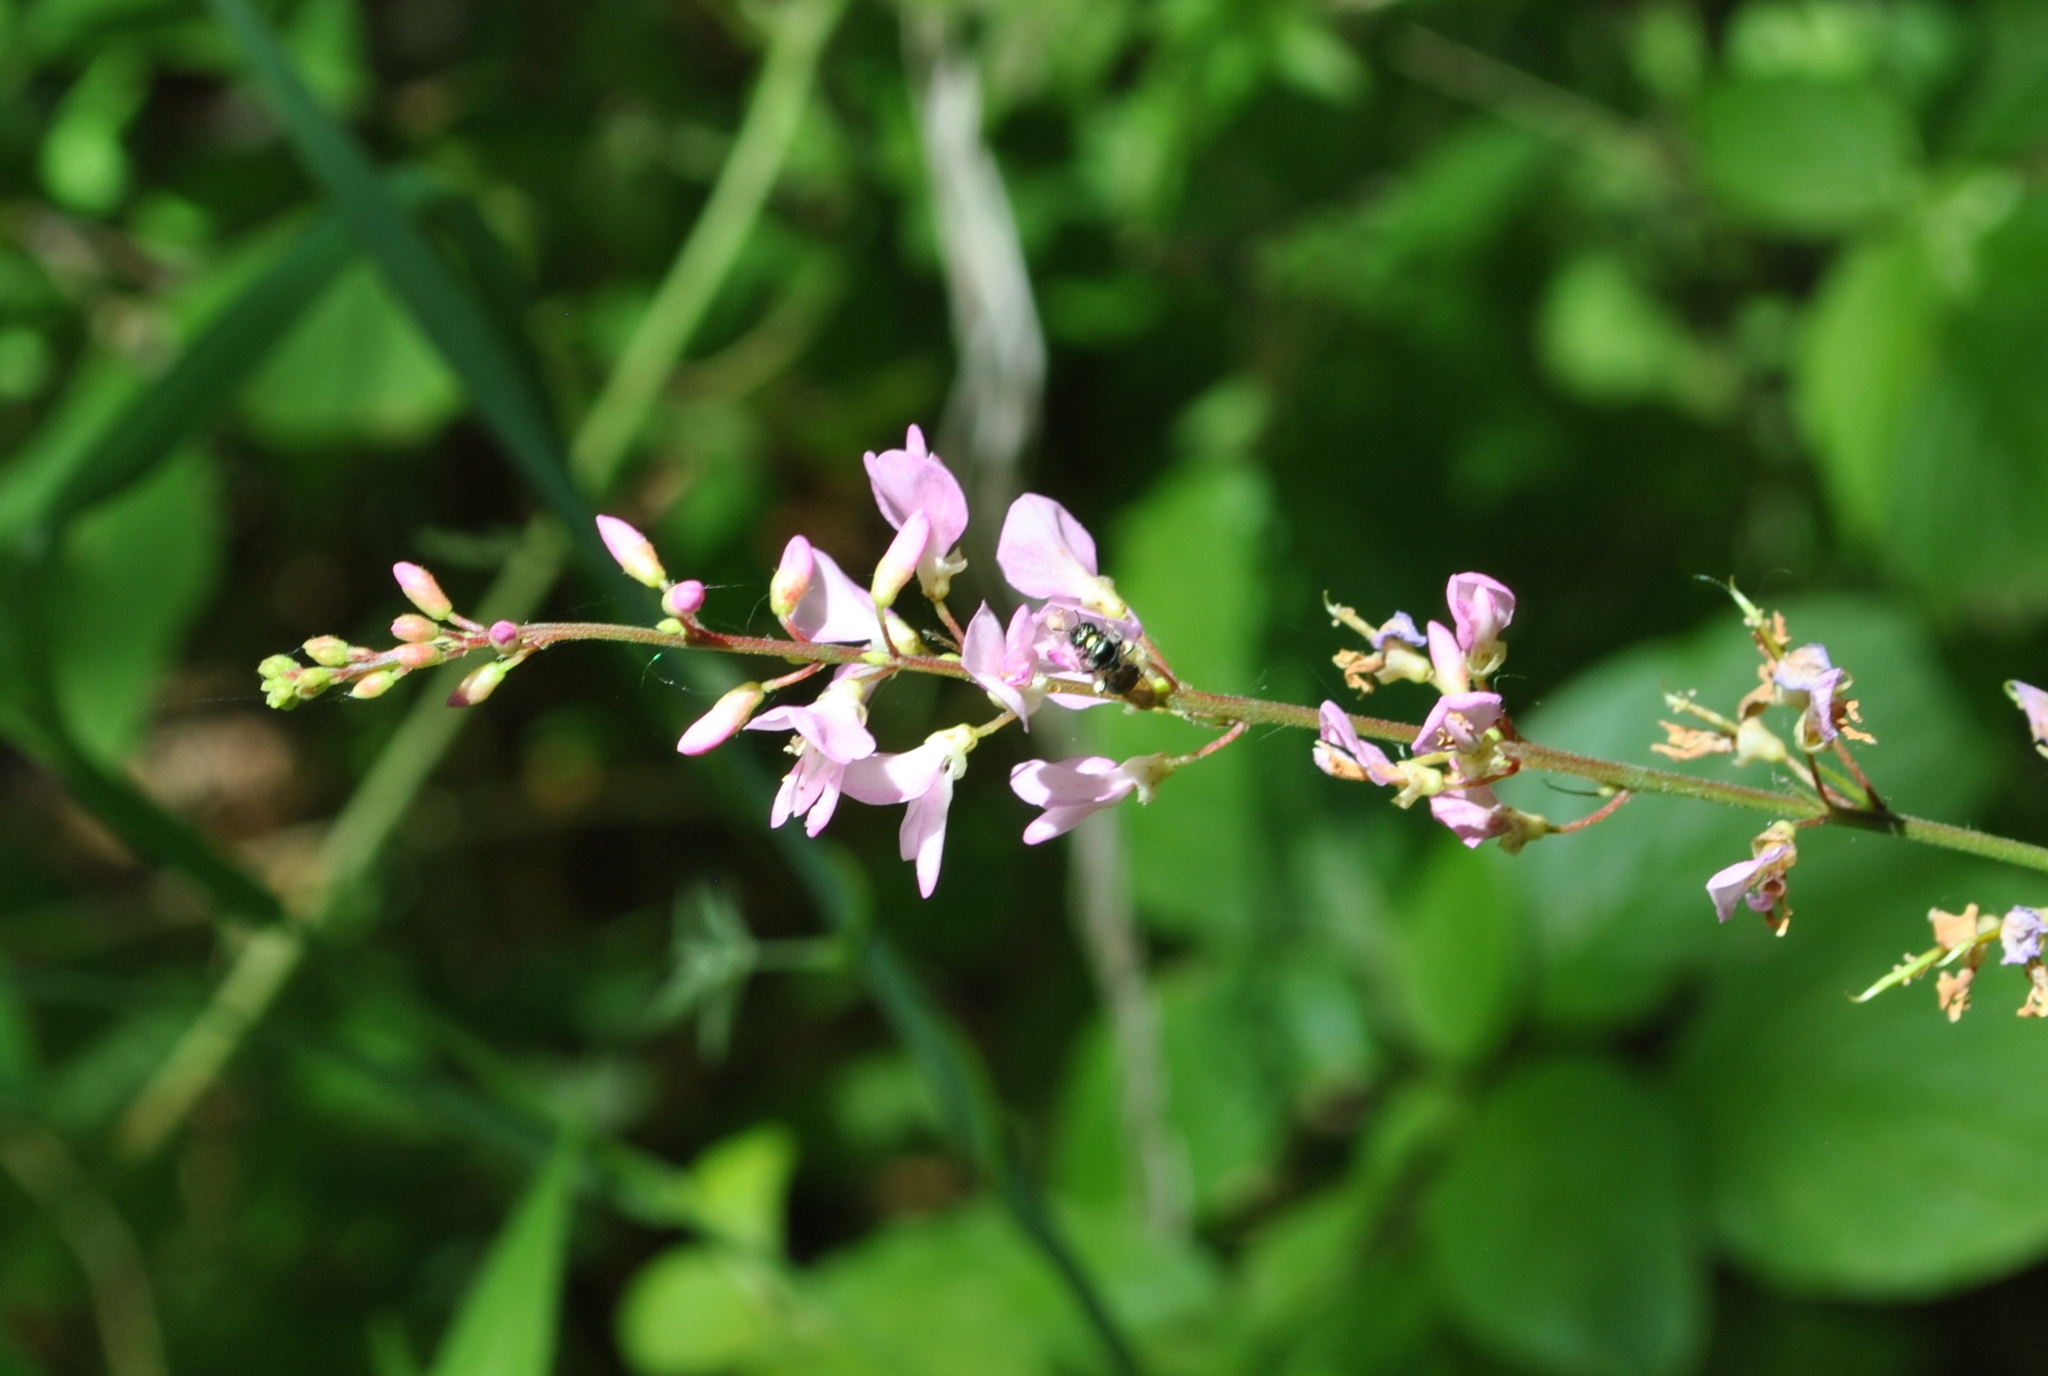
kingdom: Plantae
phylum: Tracheophyta
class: Magnoliopsida
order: Fabales
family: Fabaceae
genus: Hylodesmum
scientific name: Hylodesmum glutinosum
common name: Clustered-leaved tick-trefoil
